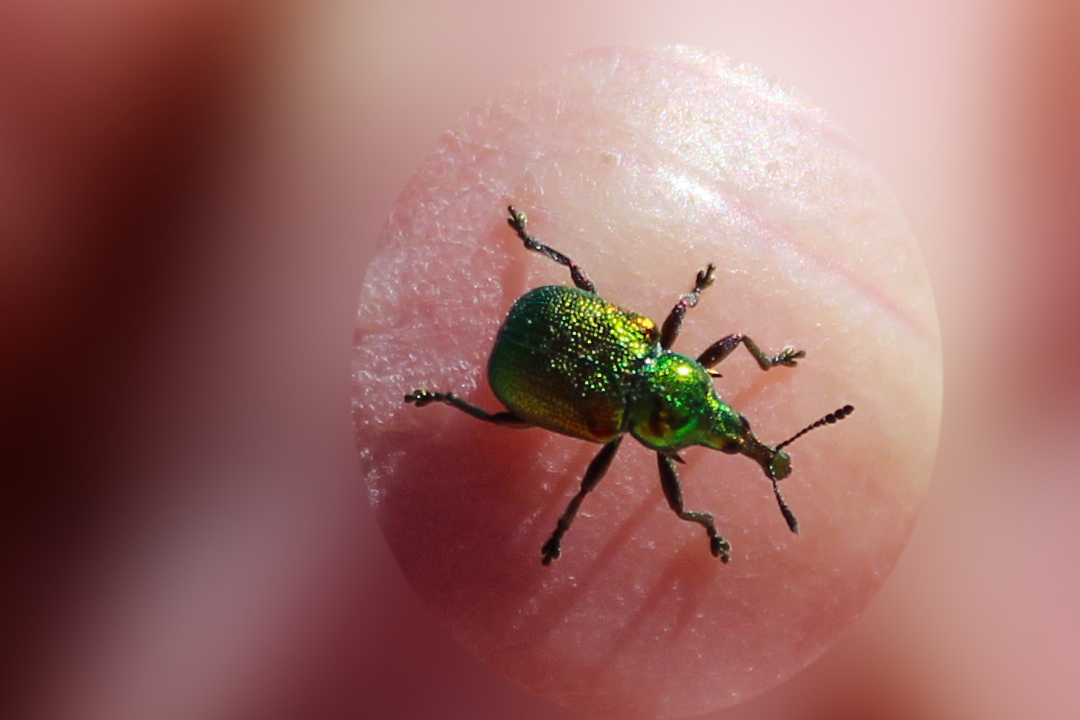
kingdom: Animalia
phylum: Arthropoda
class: Insecta
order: Coleoptera
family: Attelabidae
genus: Byctiscus
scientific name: Byctiscus betulae
